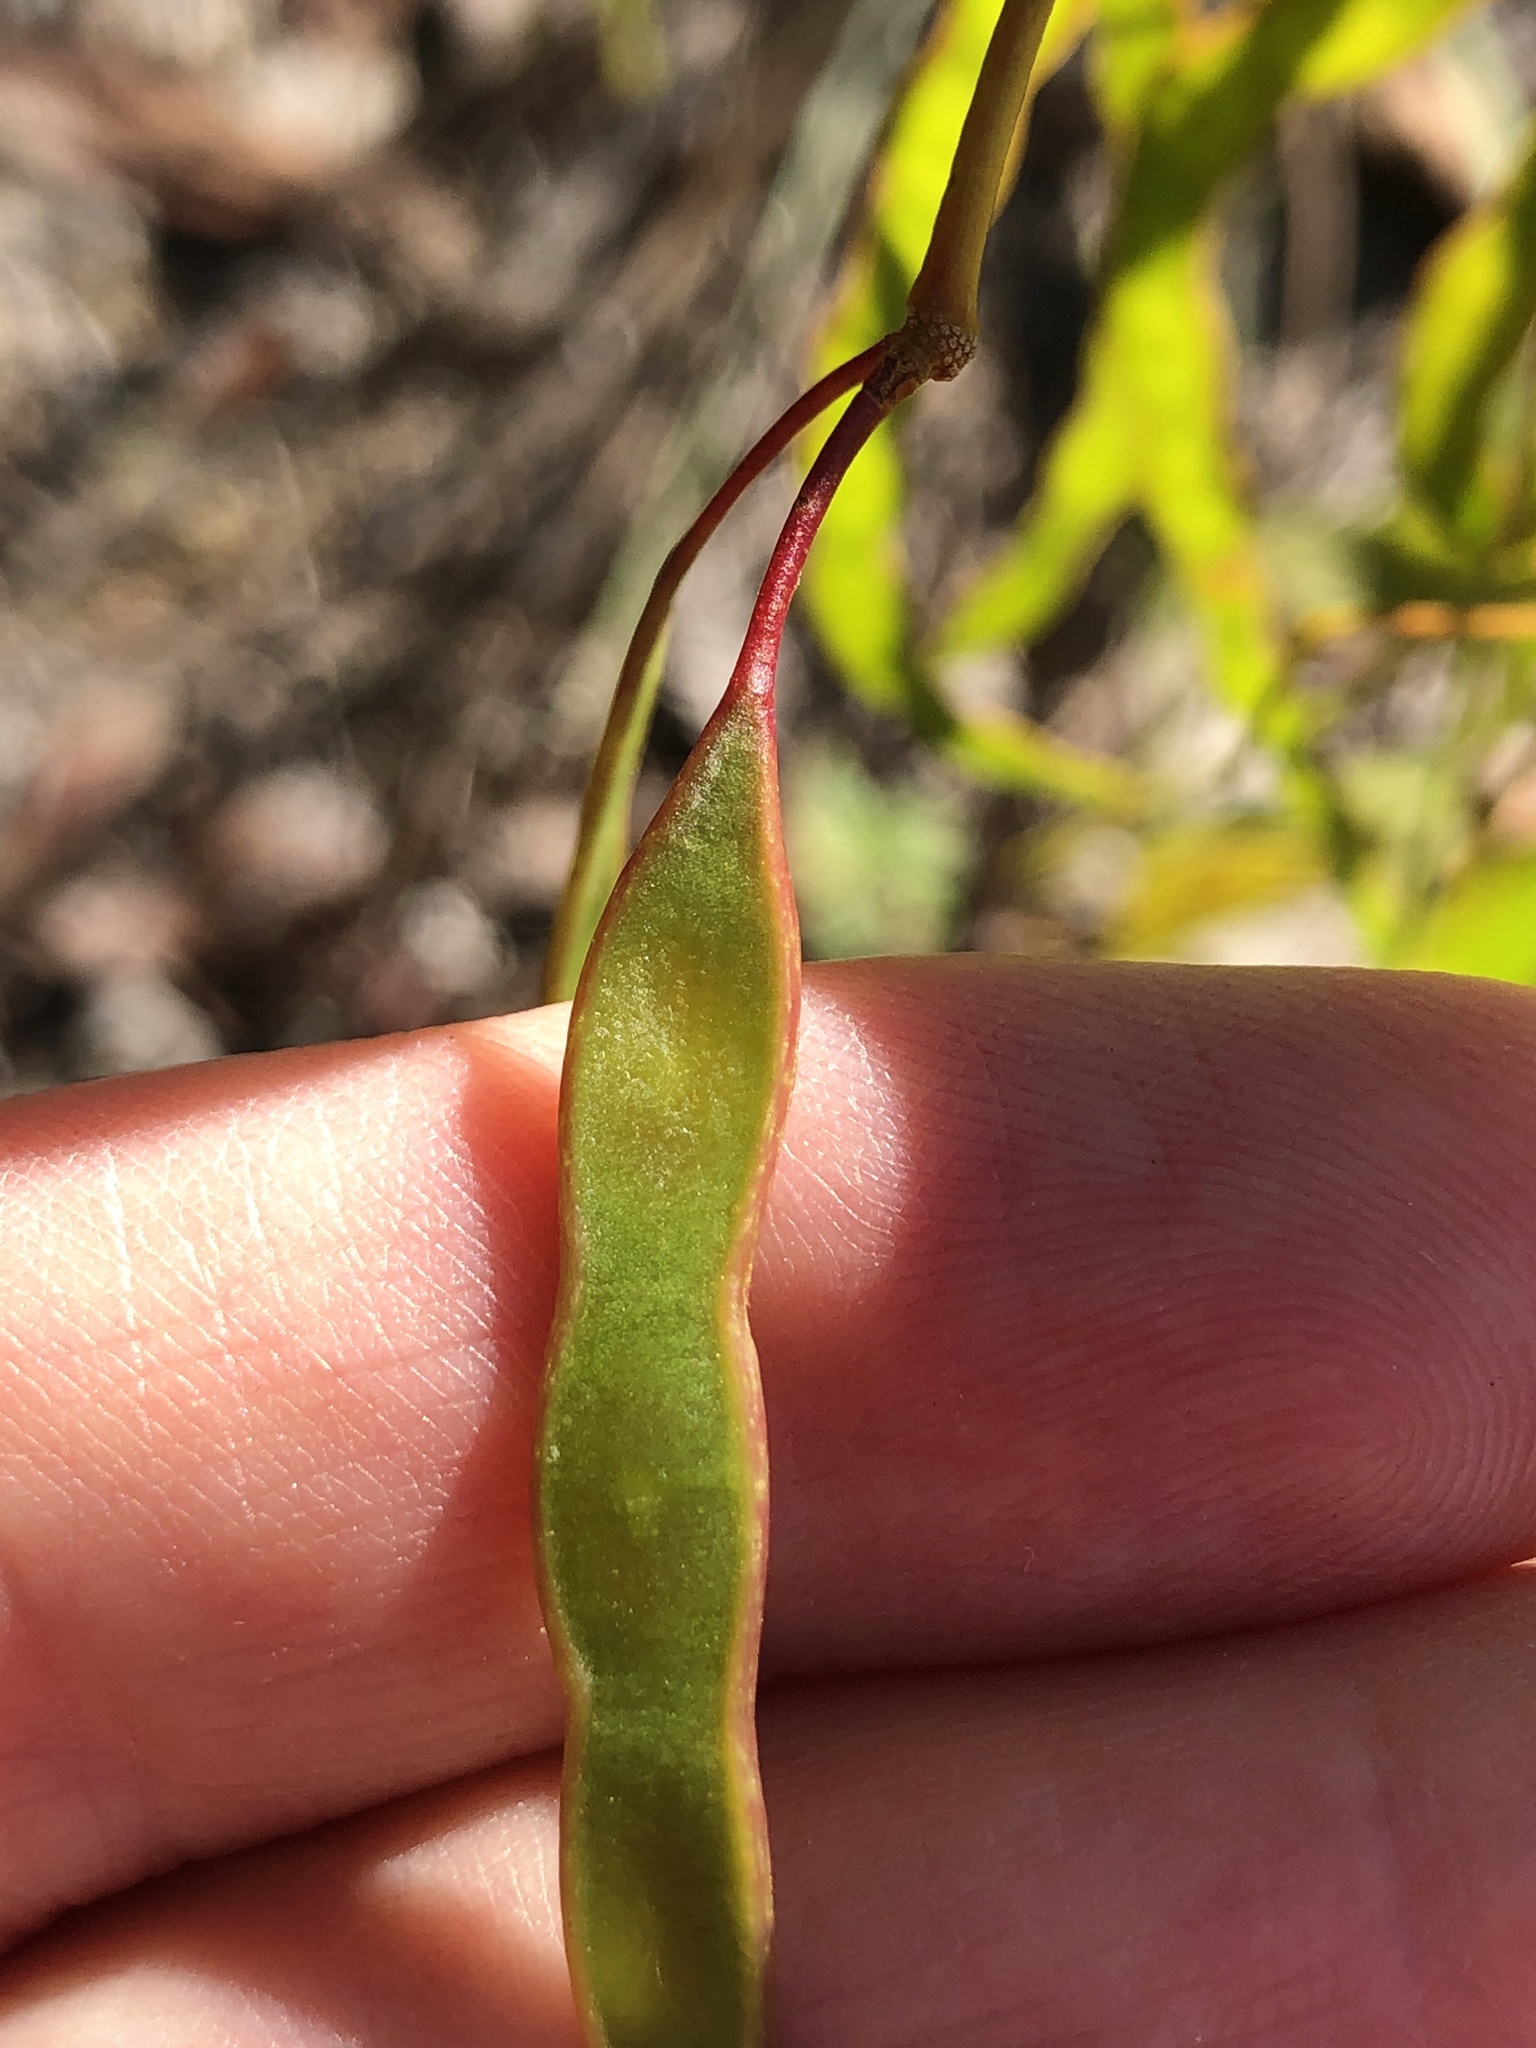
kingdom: Plantae
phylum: Tracheophyta
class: Magnoliopsida
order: Fabales
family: Fabaceae
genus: Acacia
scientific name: Acacia complanata
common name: Flat-stemmed wattle
